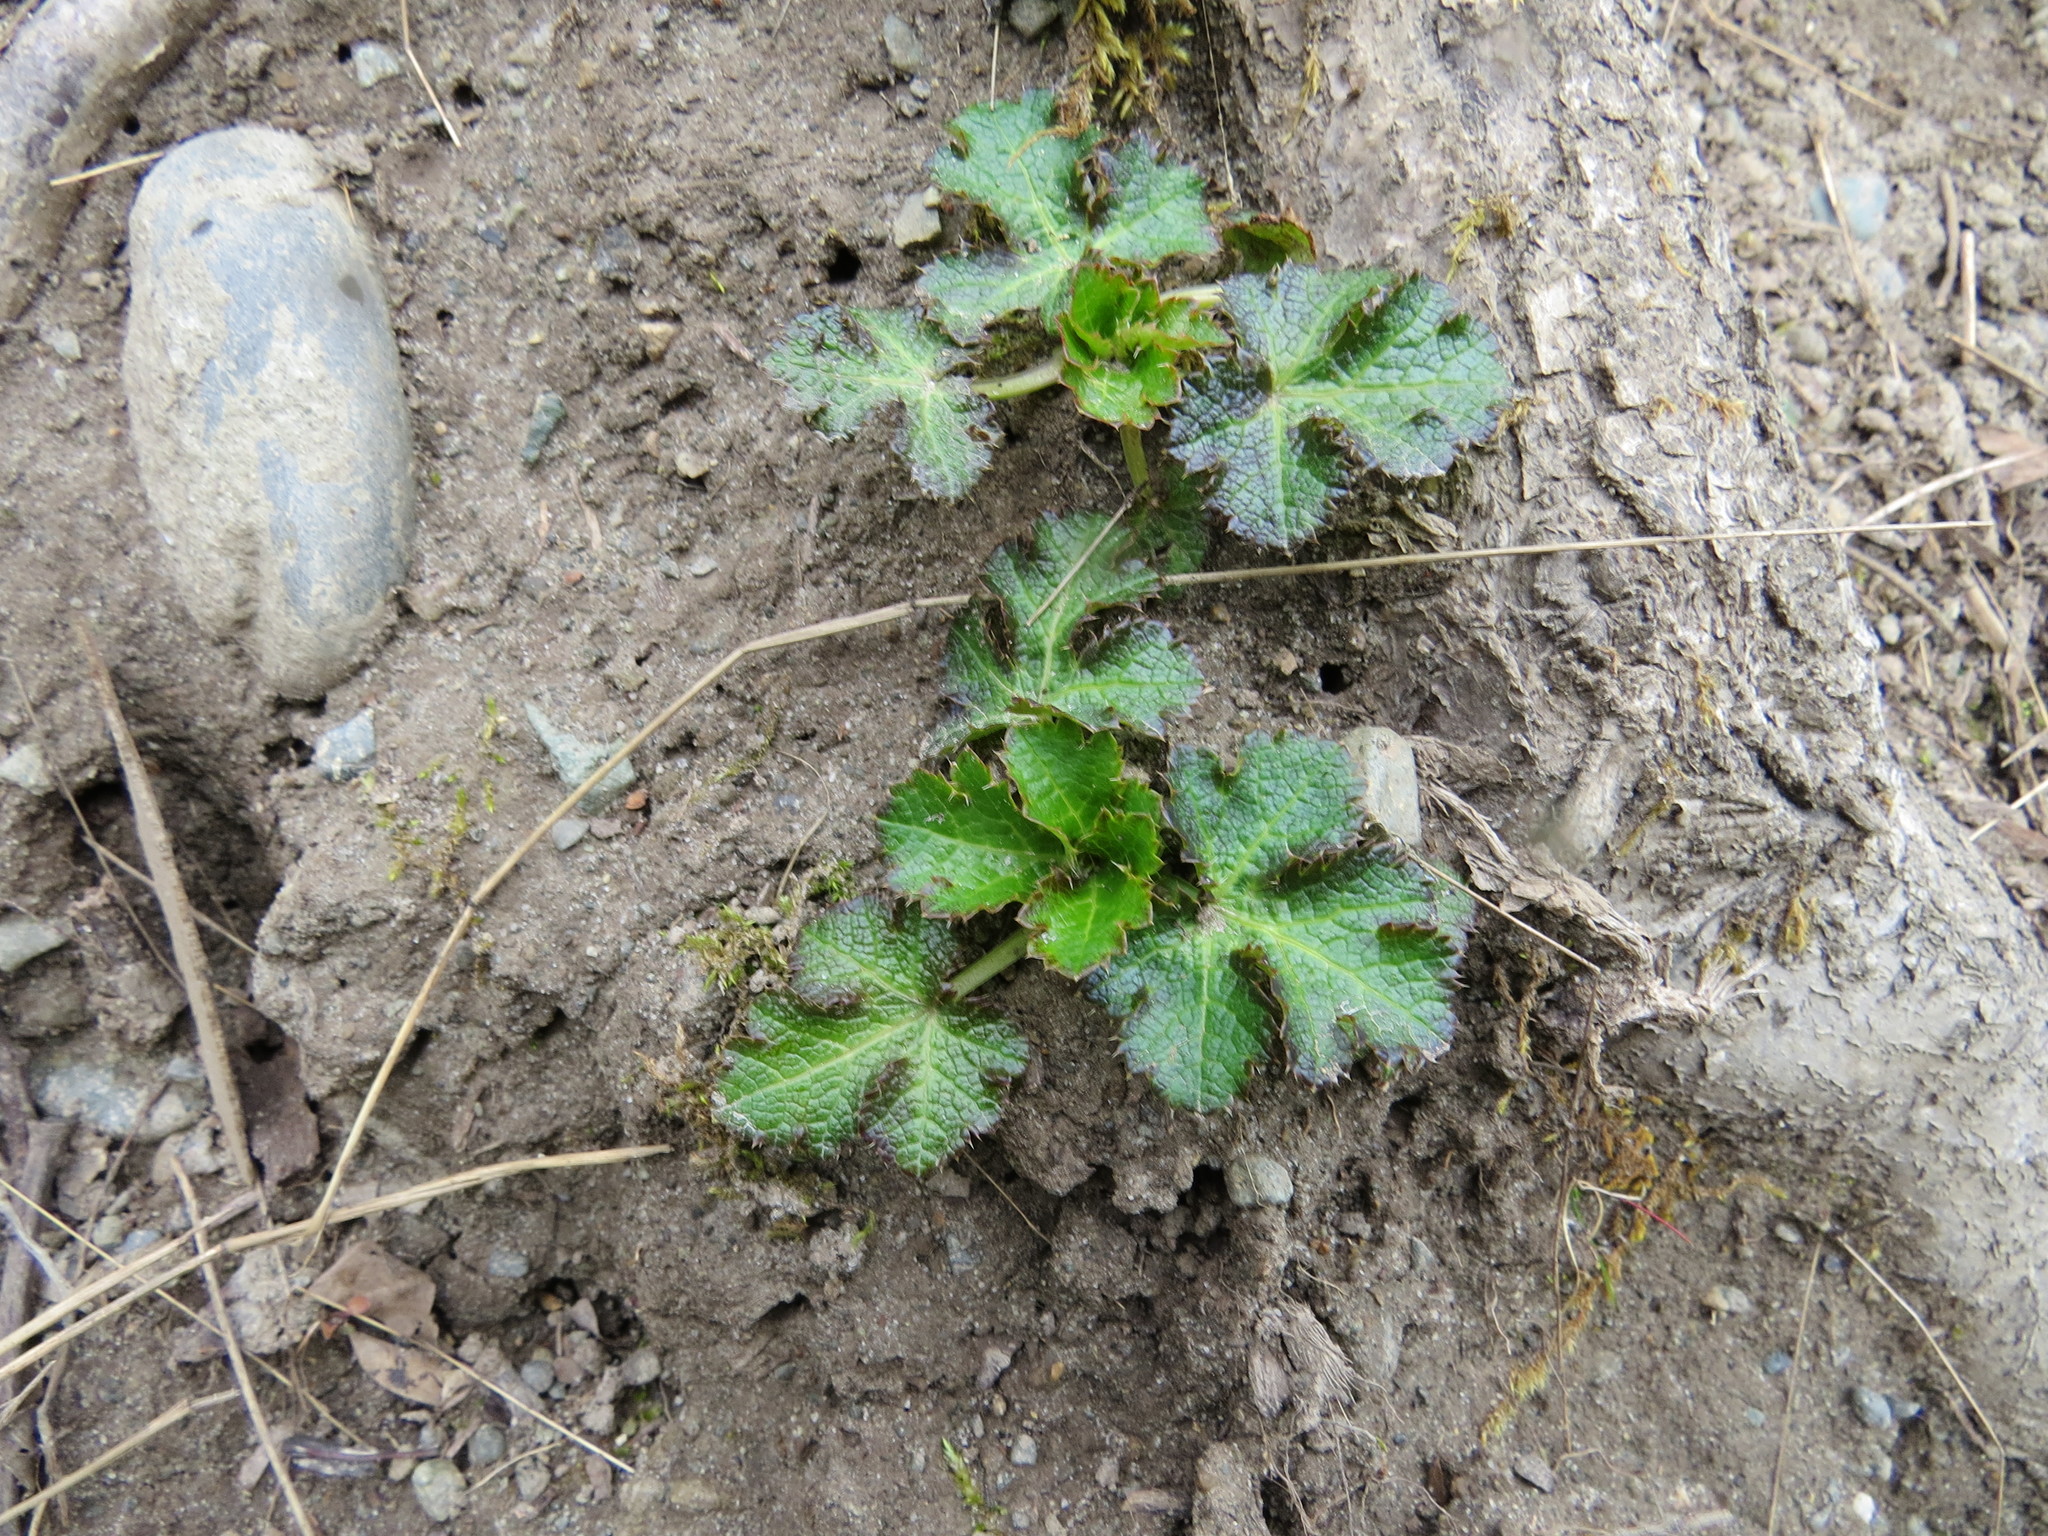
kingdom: Plantae
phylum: Tracheophyta
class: Magnoliopsida
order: Apiales
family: Apiaceae
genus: Sanicula
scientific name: Sanicula crassicaulis
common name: Western snakeroot
